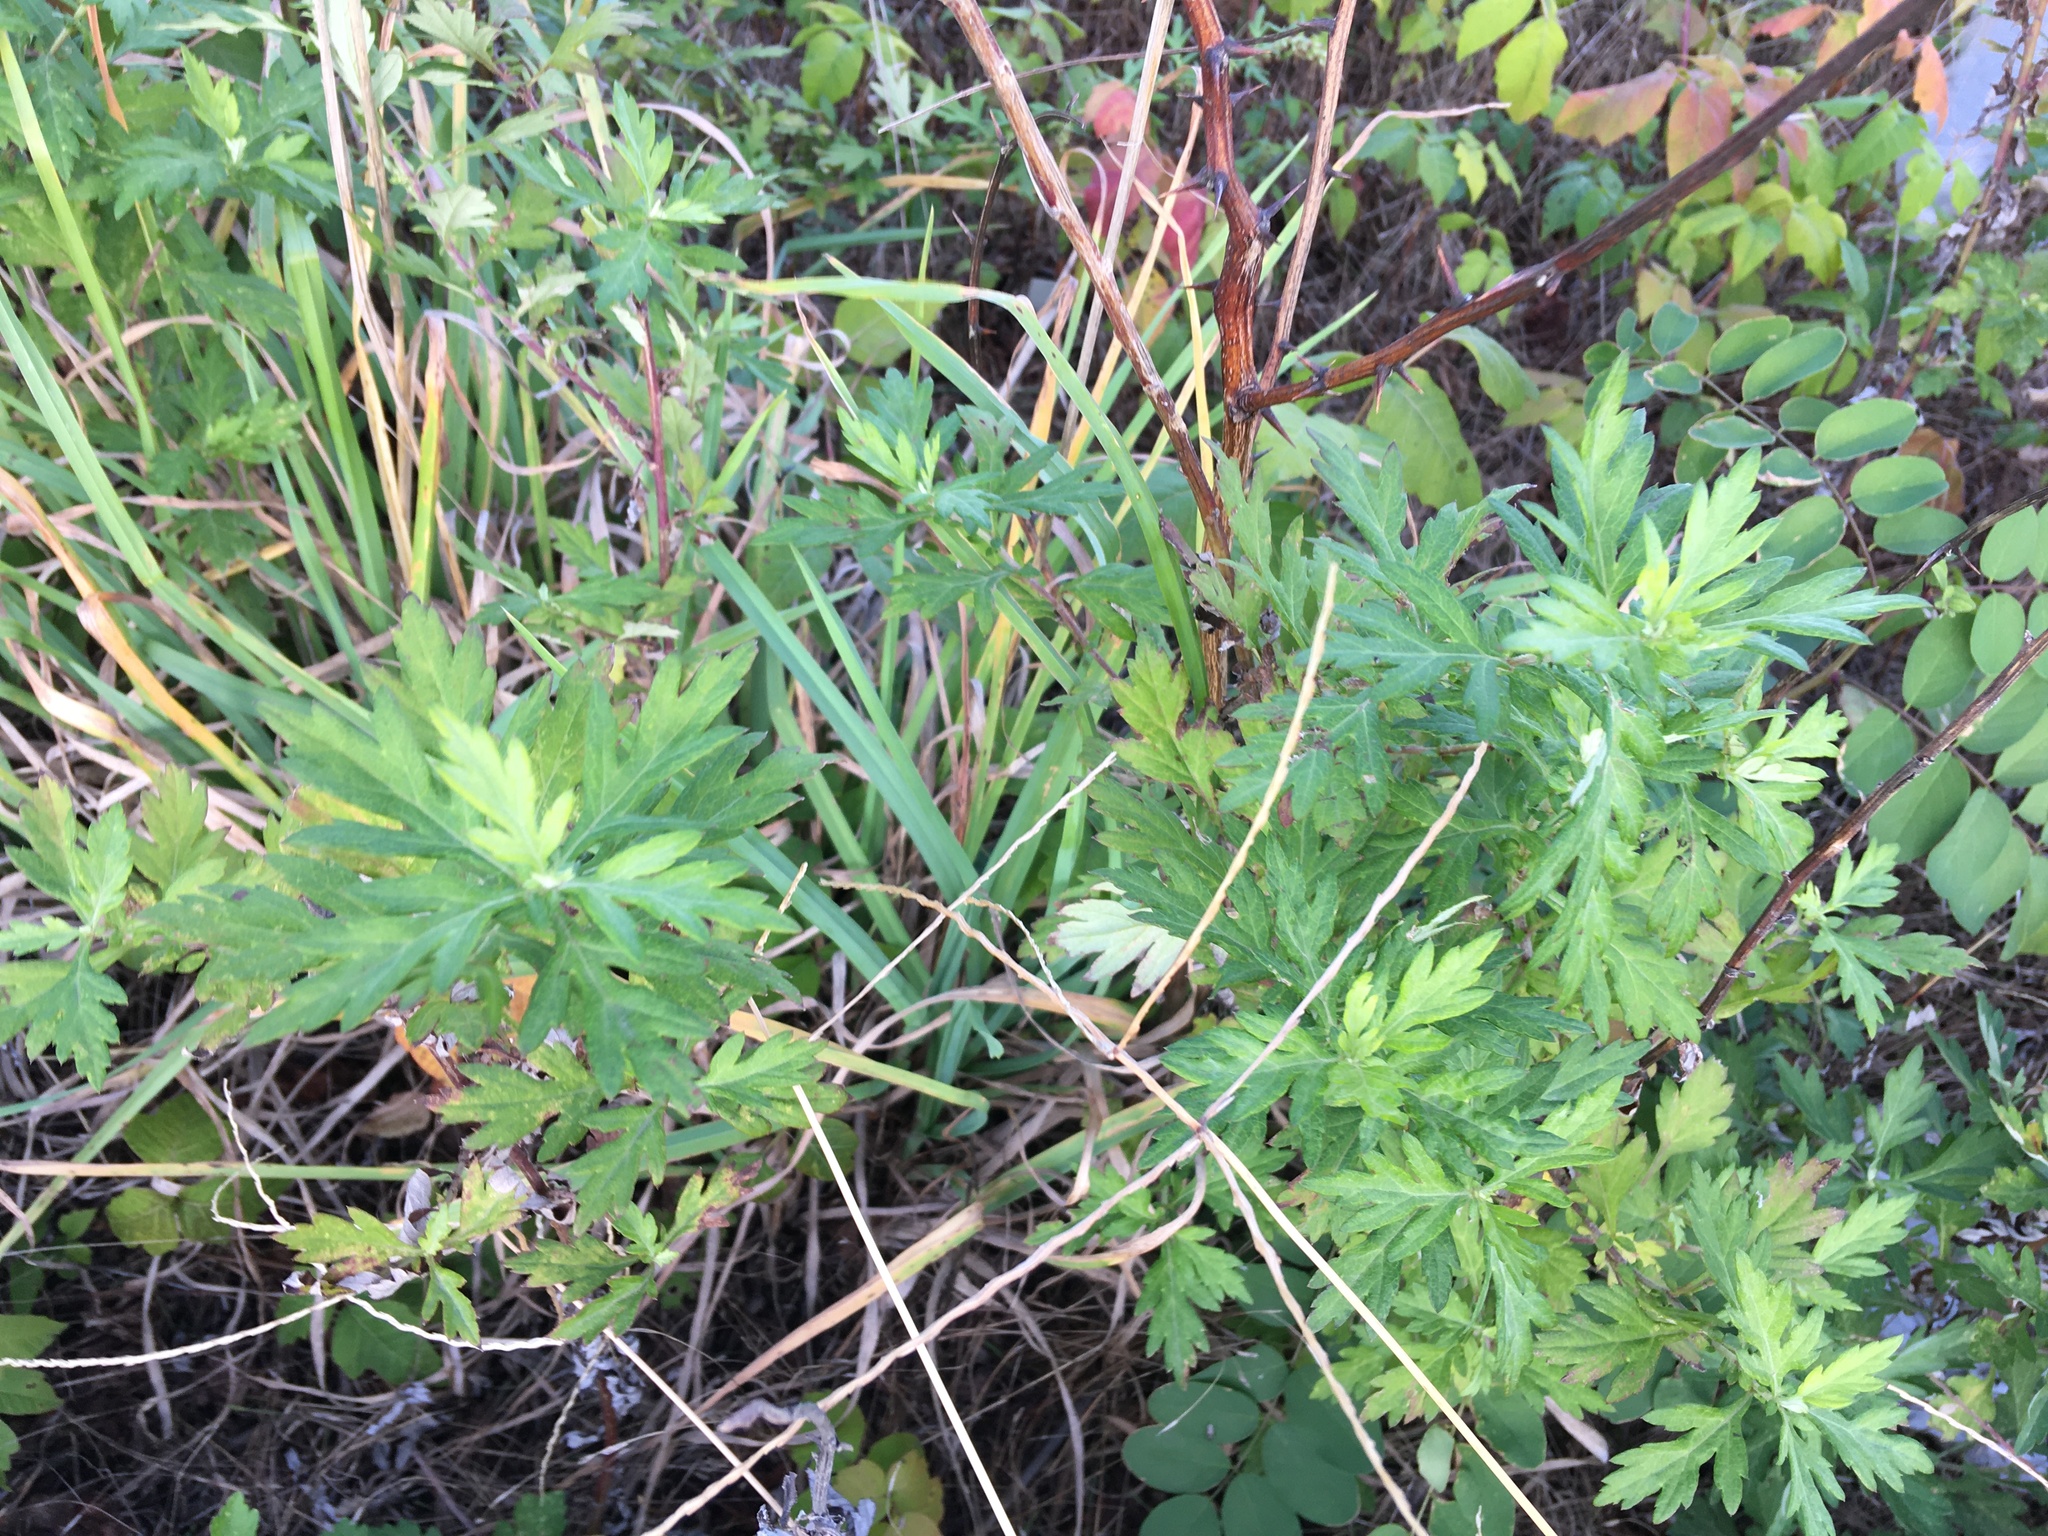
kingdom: Plantae
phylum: Tracheophyta
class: Magnoliopsida
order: Asterales
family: Asteraceae
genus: Artemisia
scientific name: Artemisia vulgaris
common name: Mugwort
